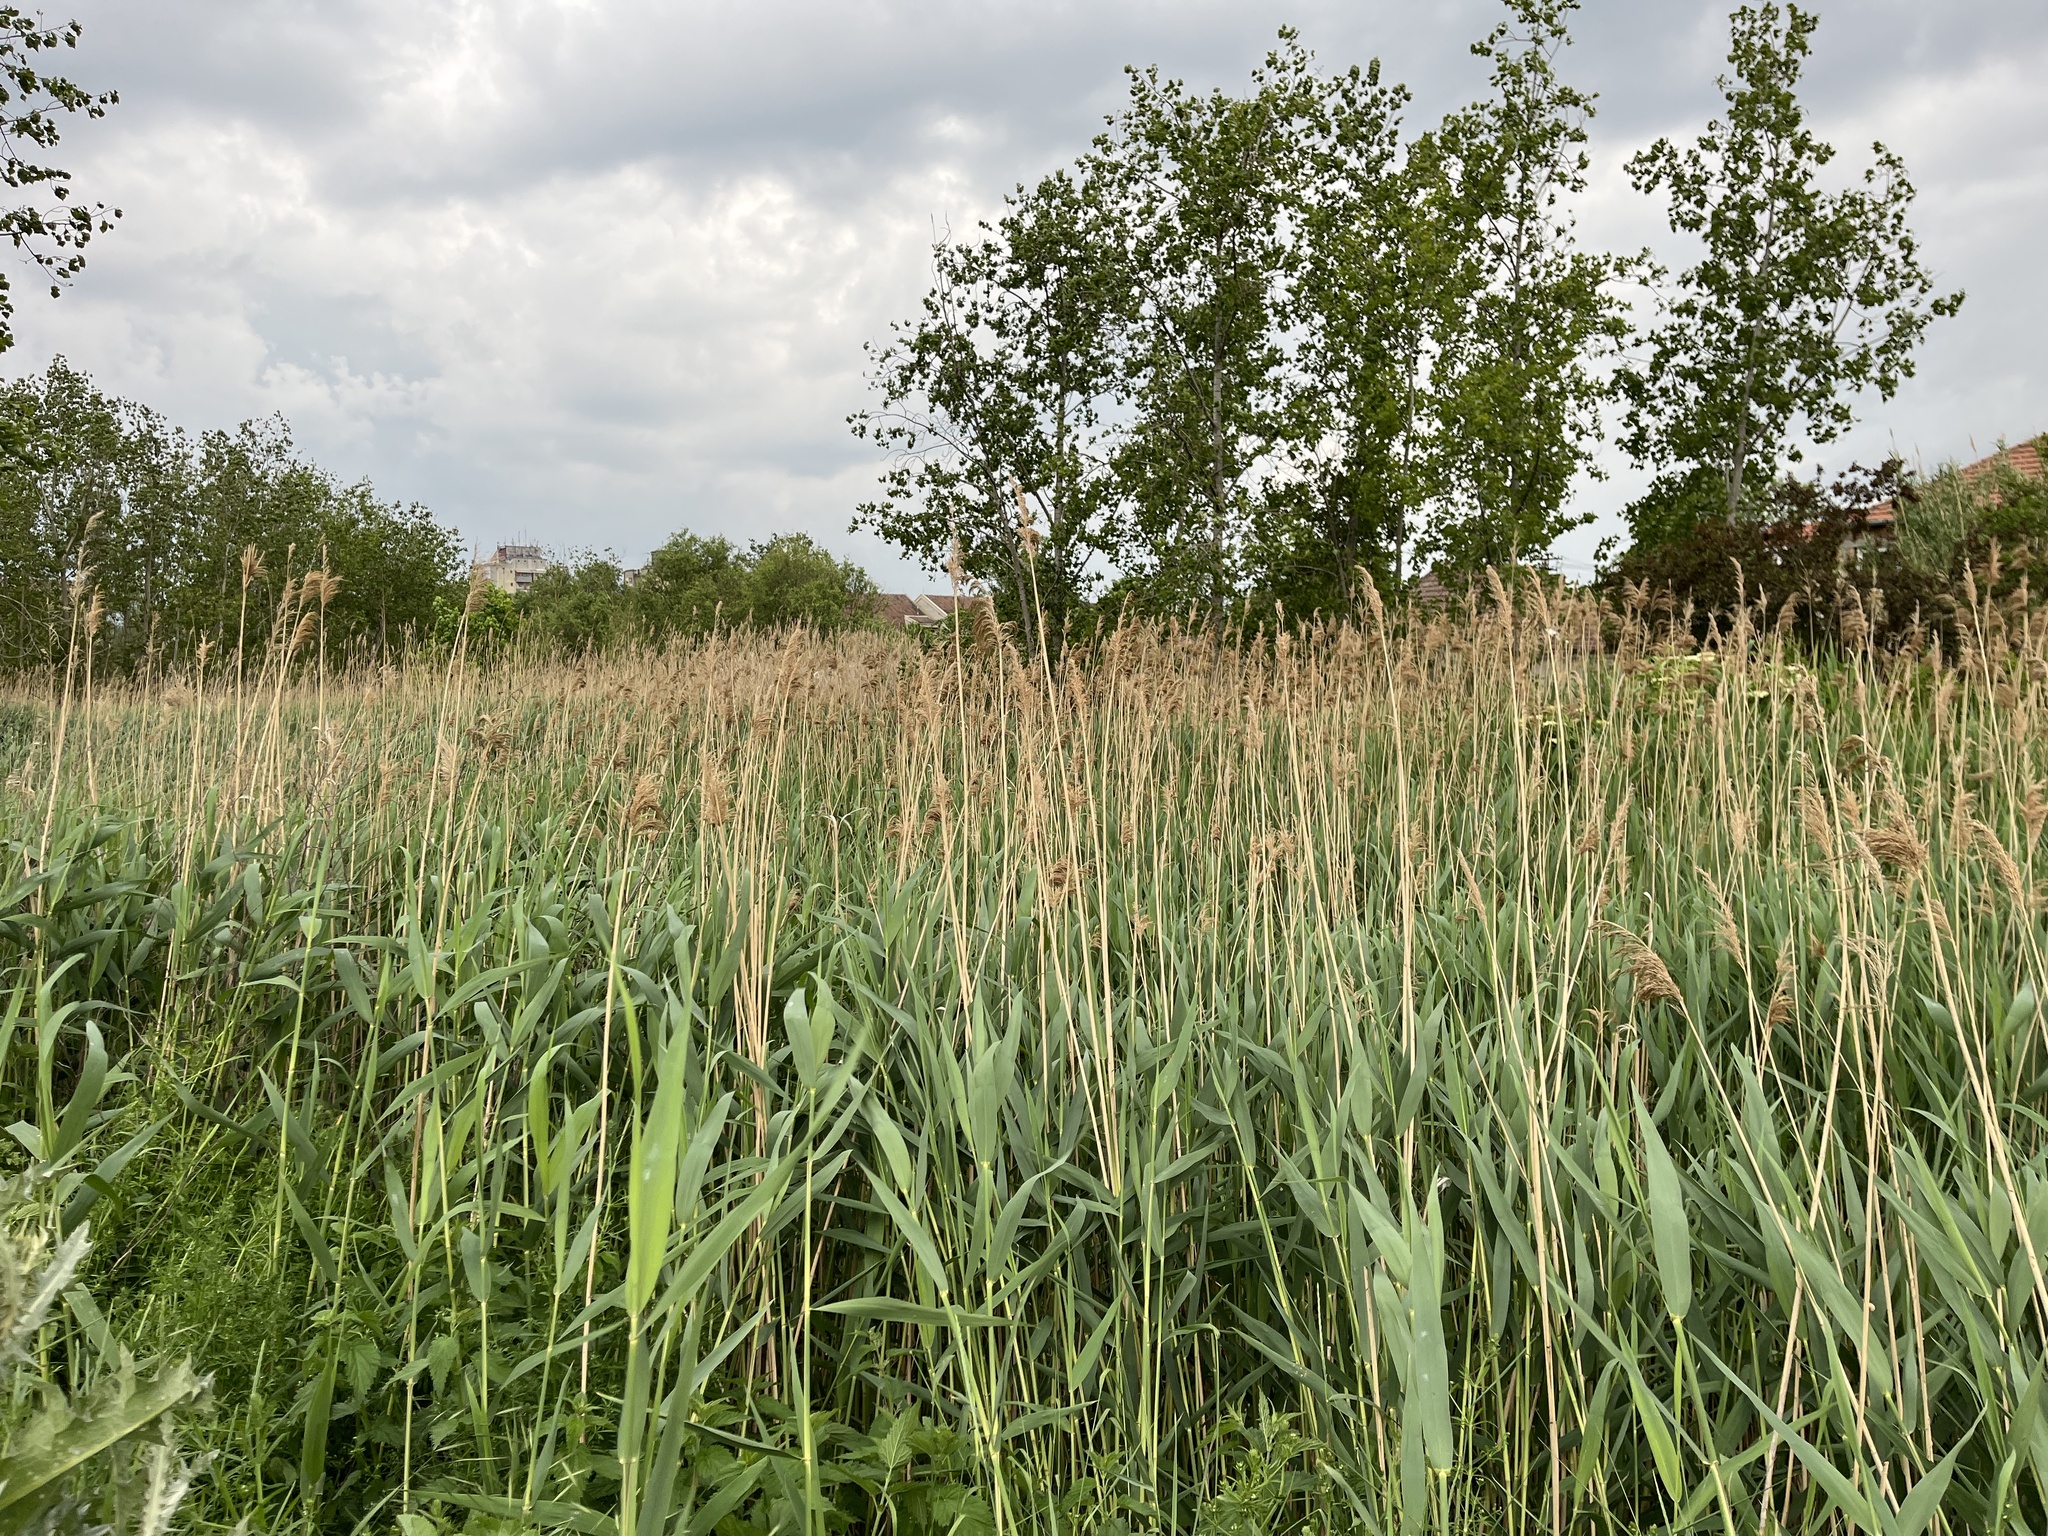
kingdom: Plantae
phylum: Tracheophyta
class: Liliopsida
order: Poales
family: Poaceae
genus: Phragmites
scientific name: Phragmites australis
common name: Common reed
